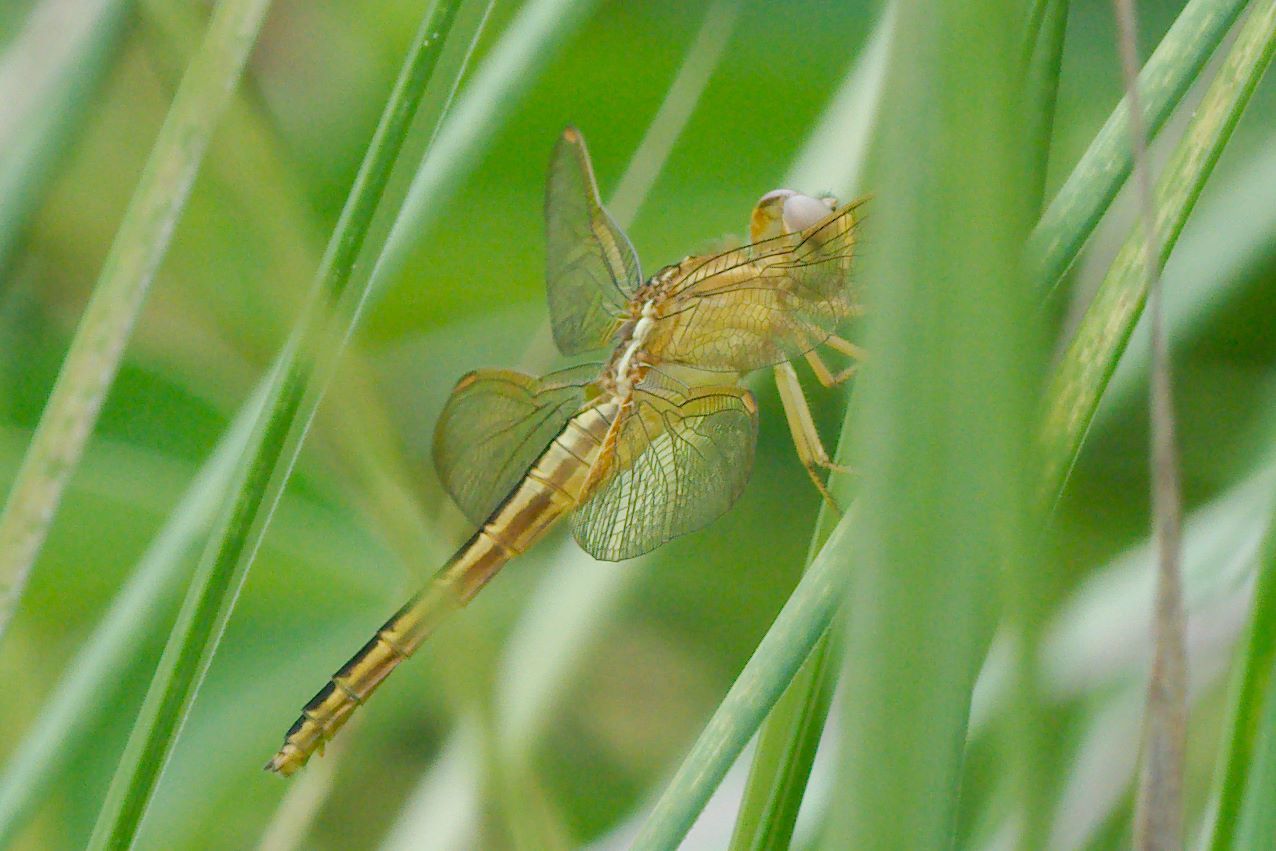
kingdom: Animalia
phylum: Arthropoda
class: Insecta
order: Odonata
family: Libellulidae
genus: Crocothemis
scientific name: Crocothemis servilia
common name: Scarlet skimmer
